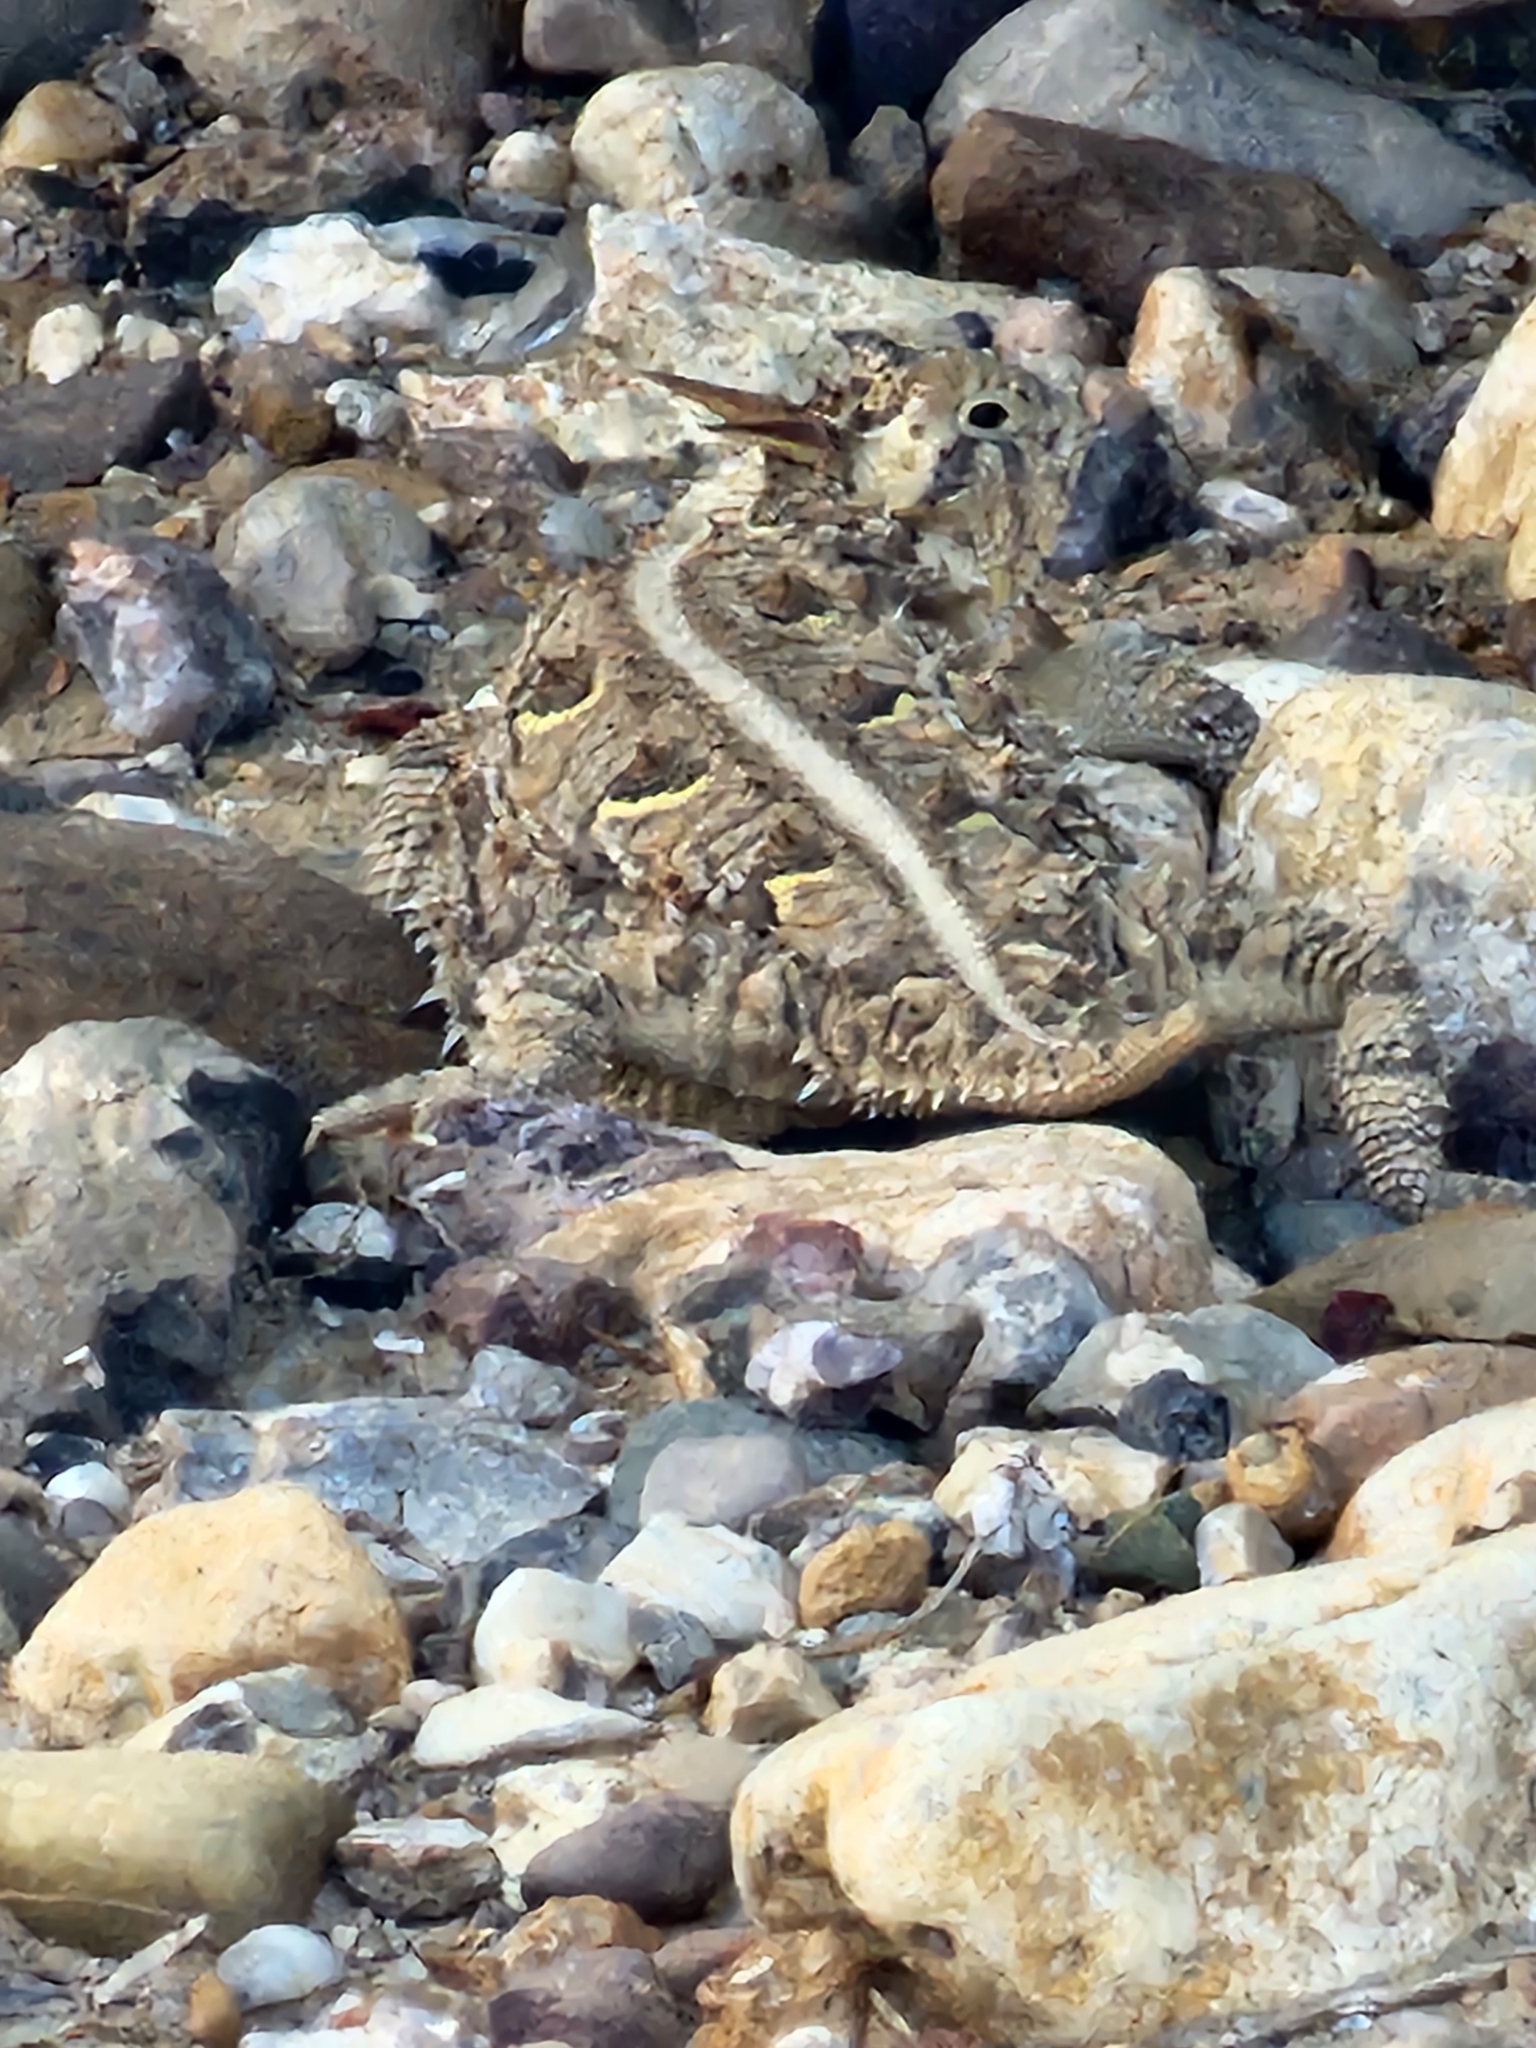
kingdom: Animalia
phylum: Chordata
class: Squamata
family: Phrynosomatidae
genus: Phrynosoma
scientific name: Phrynosoma cornutum
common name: Texas horned lizard
